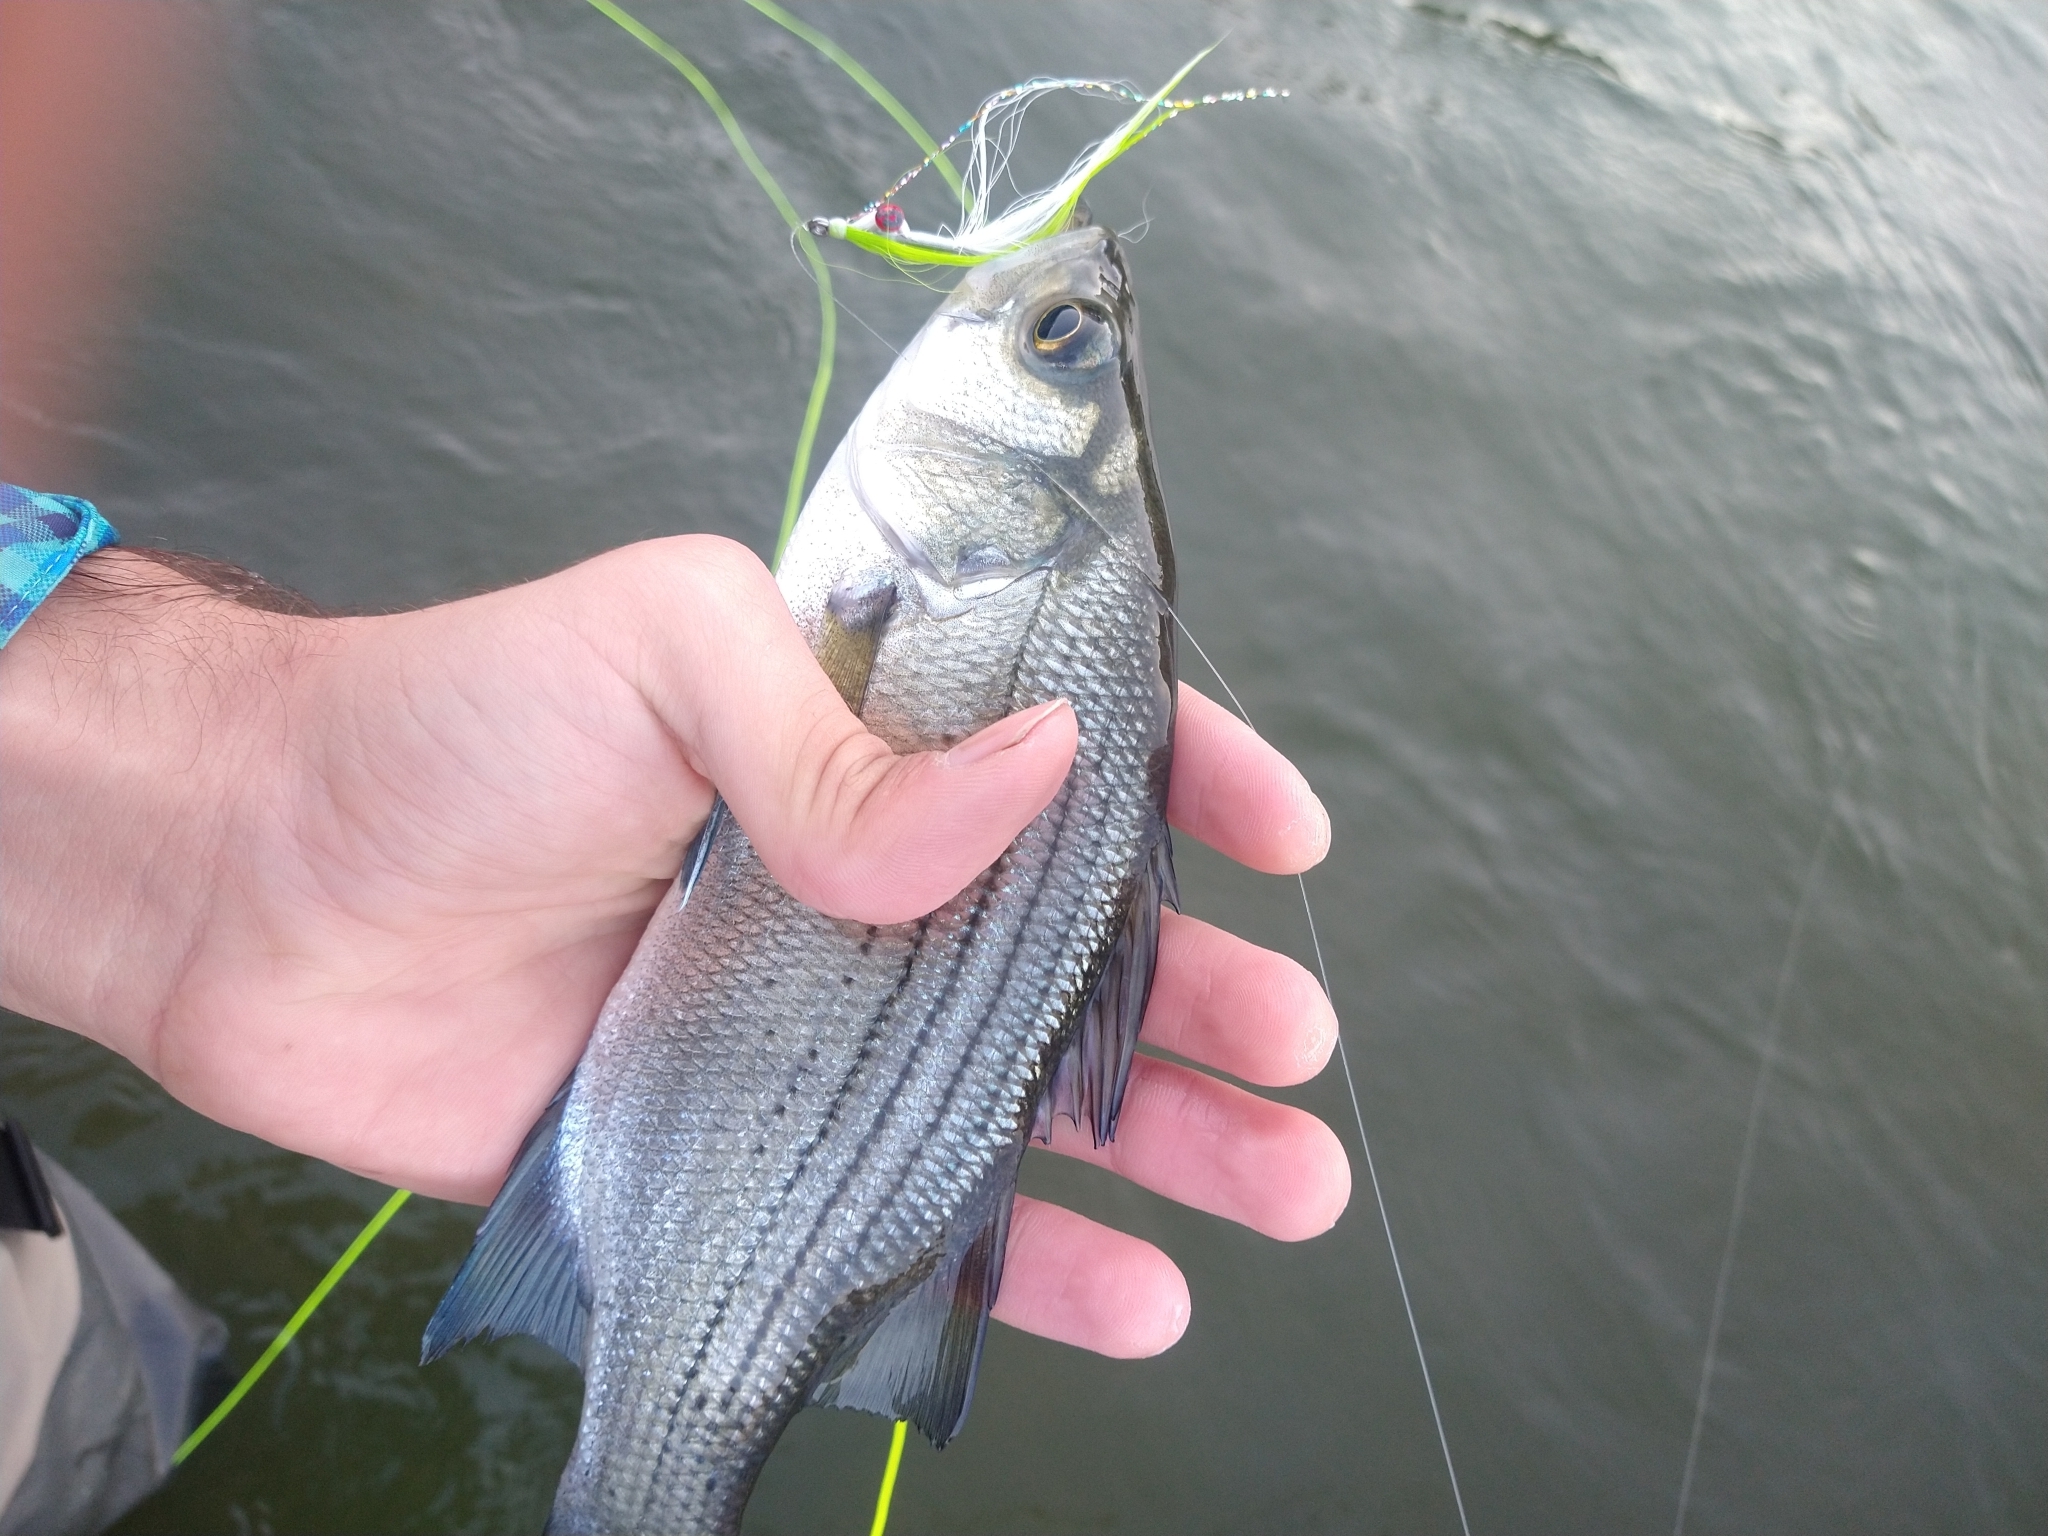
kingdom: Animalia
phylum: Chordata
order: Perciformes
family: Moronidae
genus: Morone
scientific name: Morone chrysops
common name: White bass
